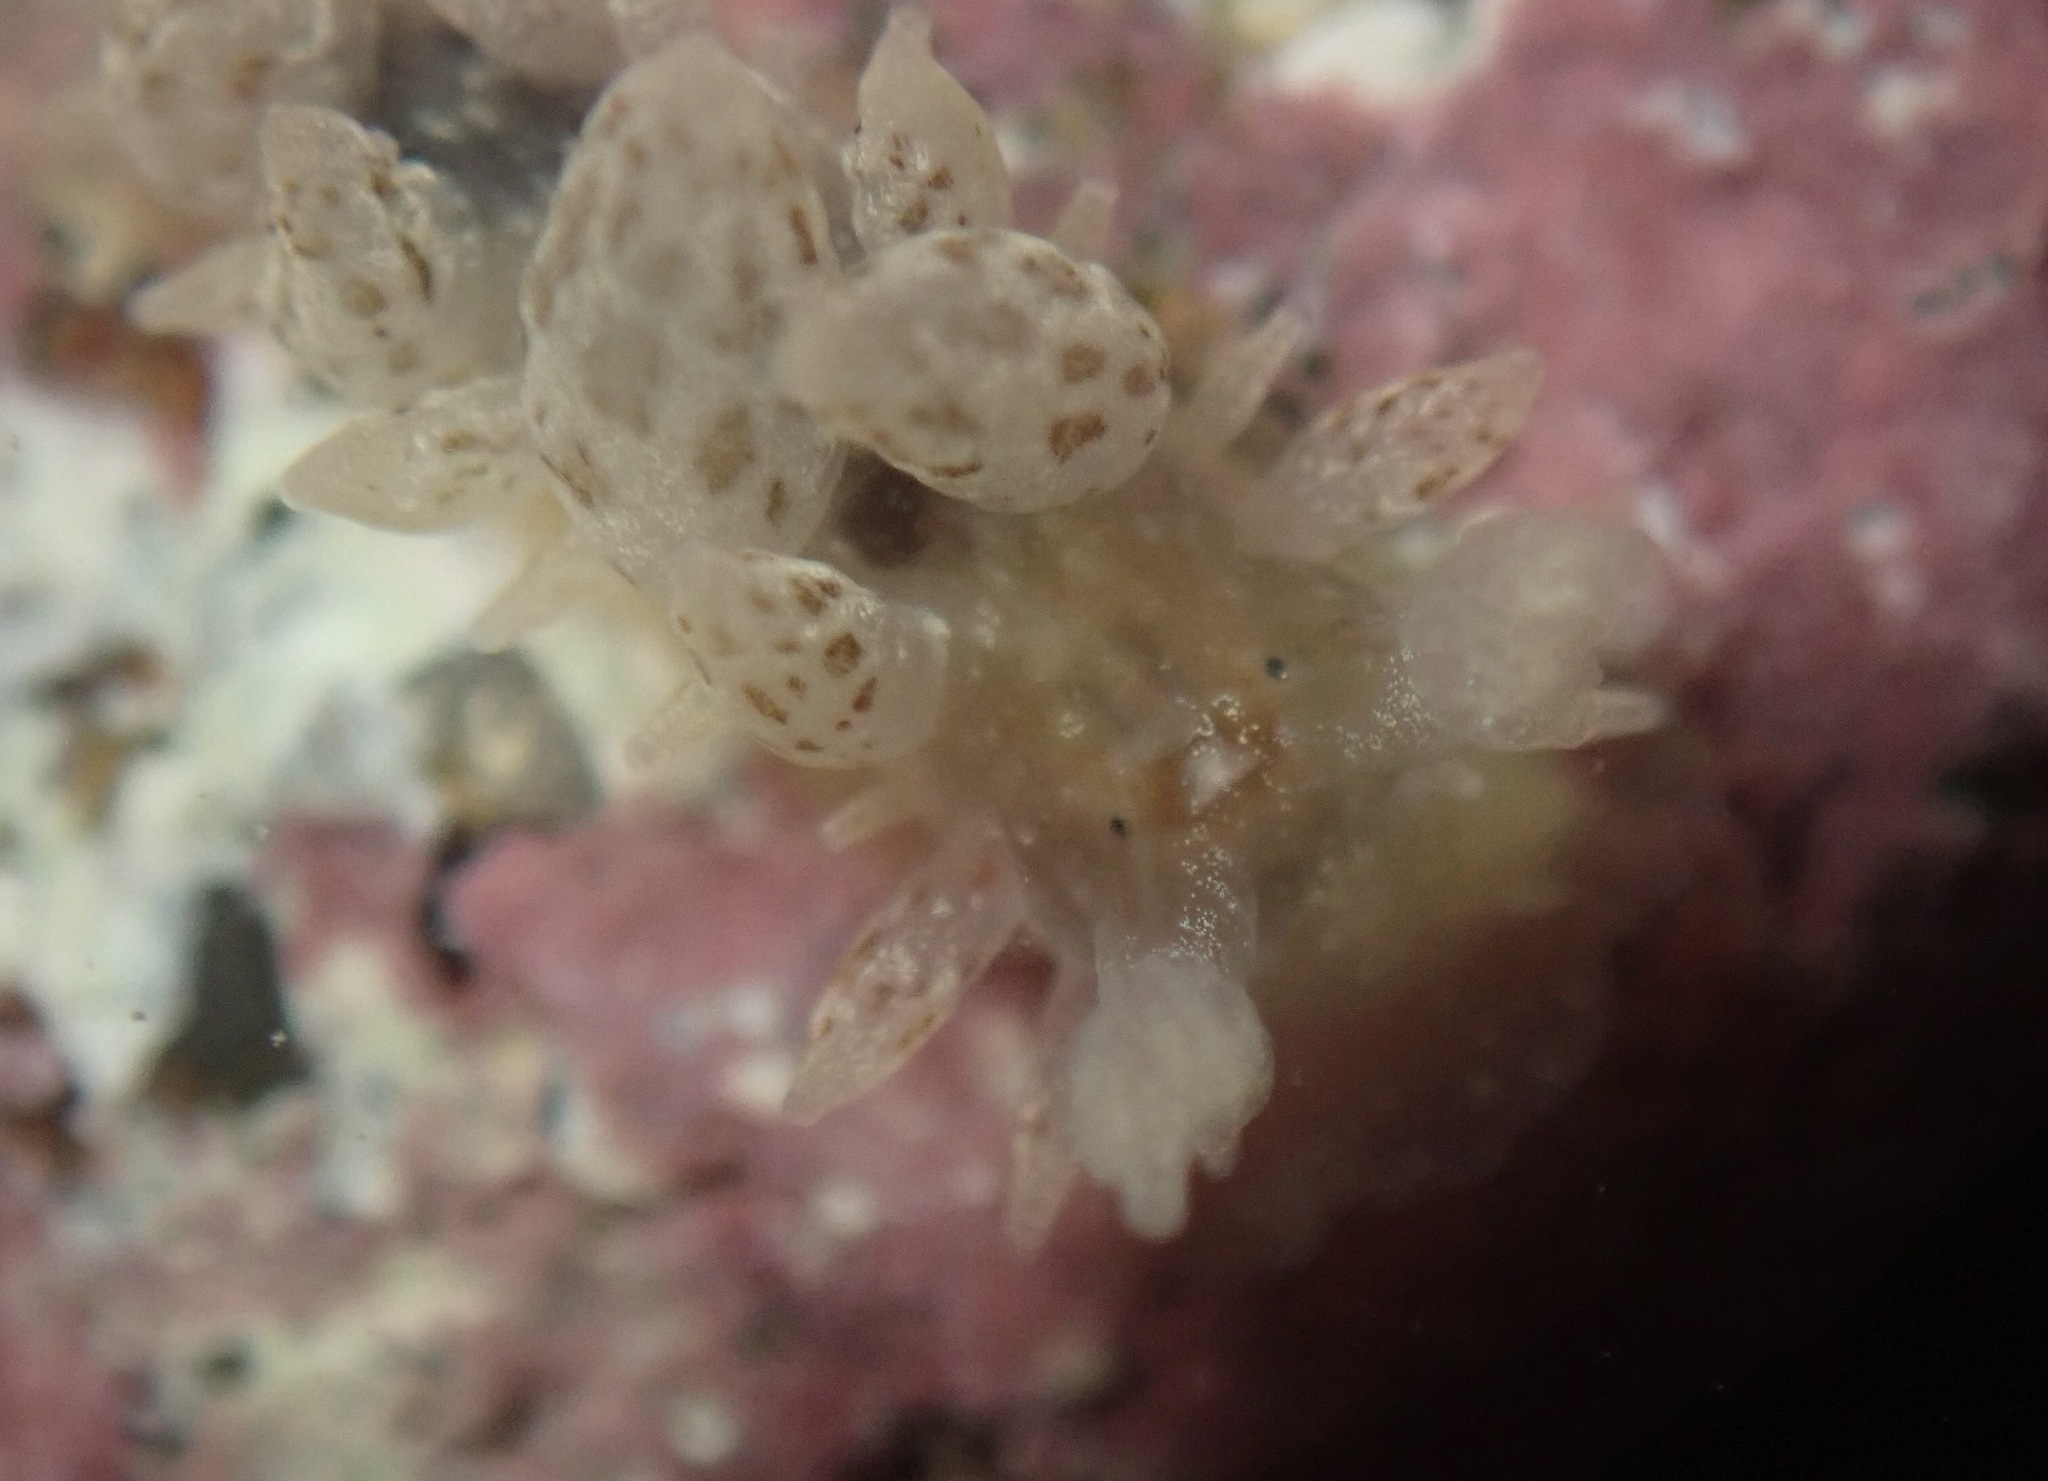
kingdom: Animalia
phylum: Mollusca
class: Gastropoda
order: Nudibranchia
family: Dironidae
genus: Dirona
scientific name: Dirona picta
